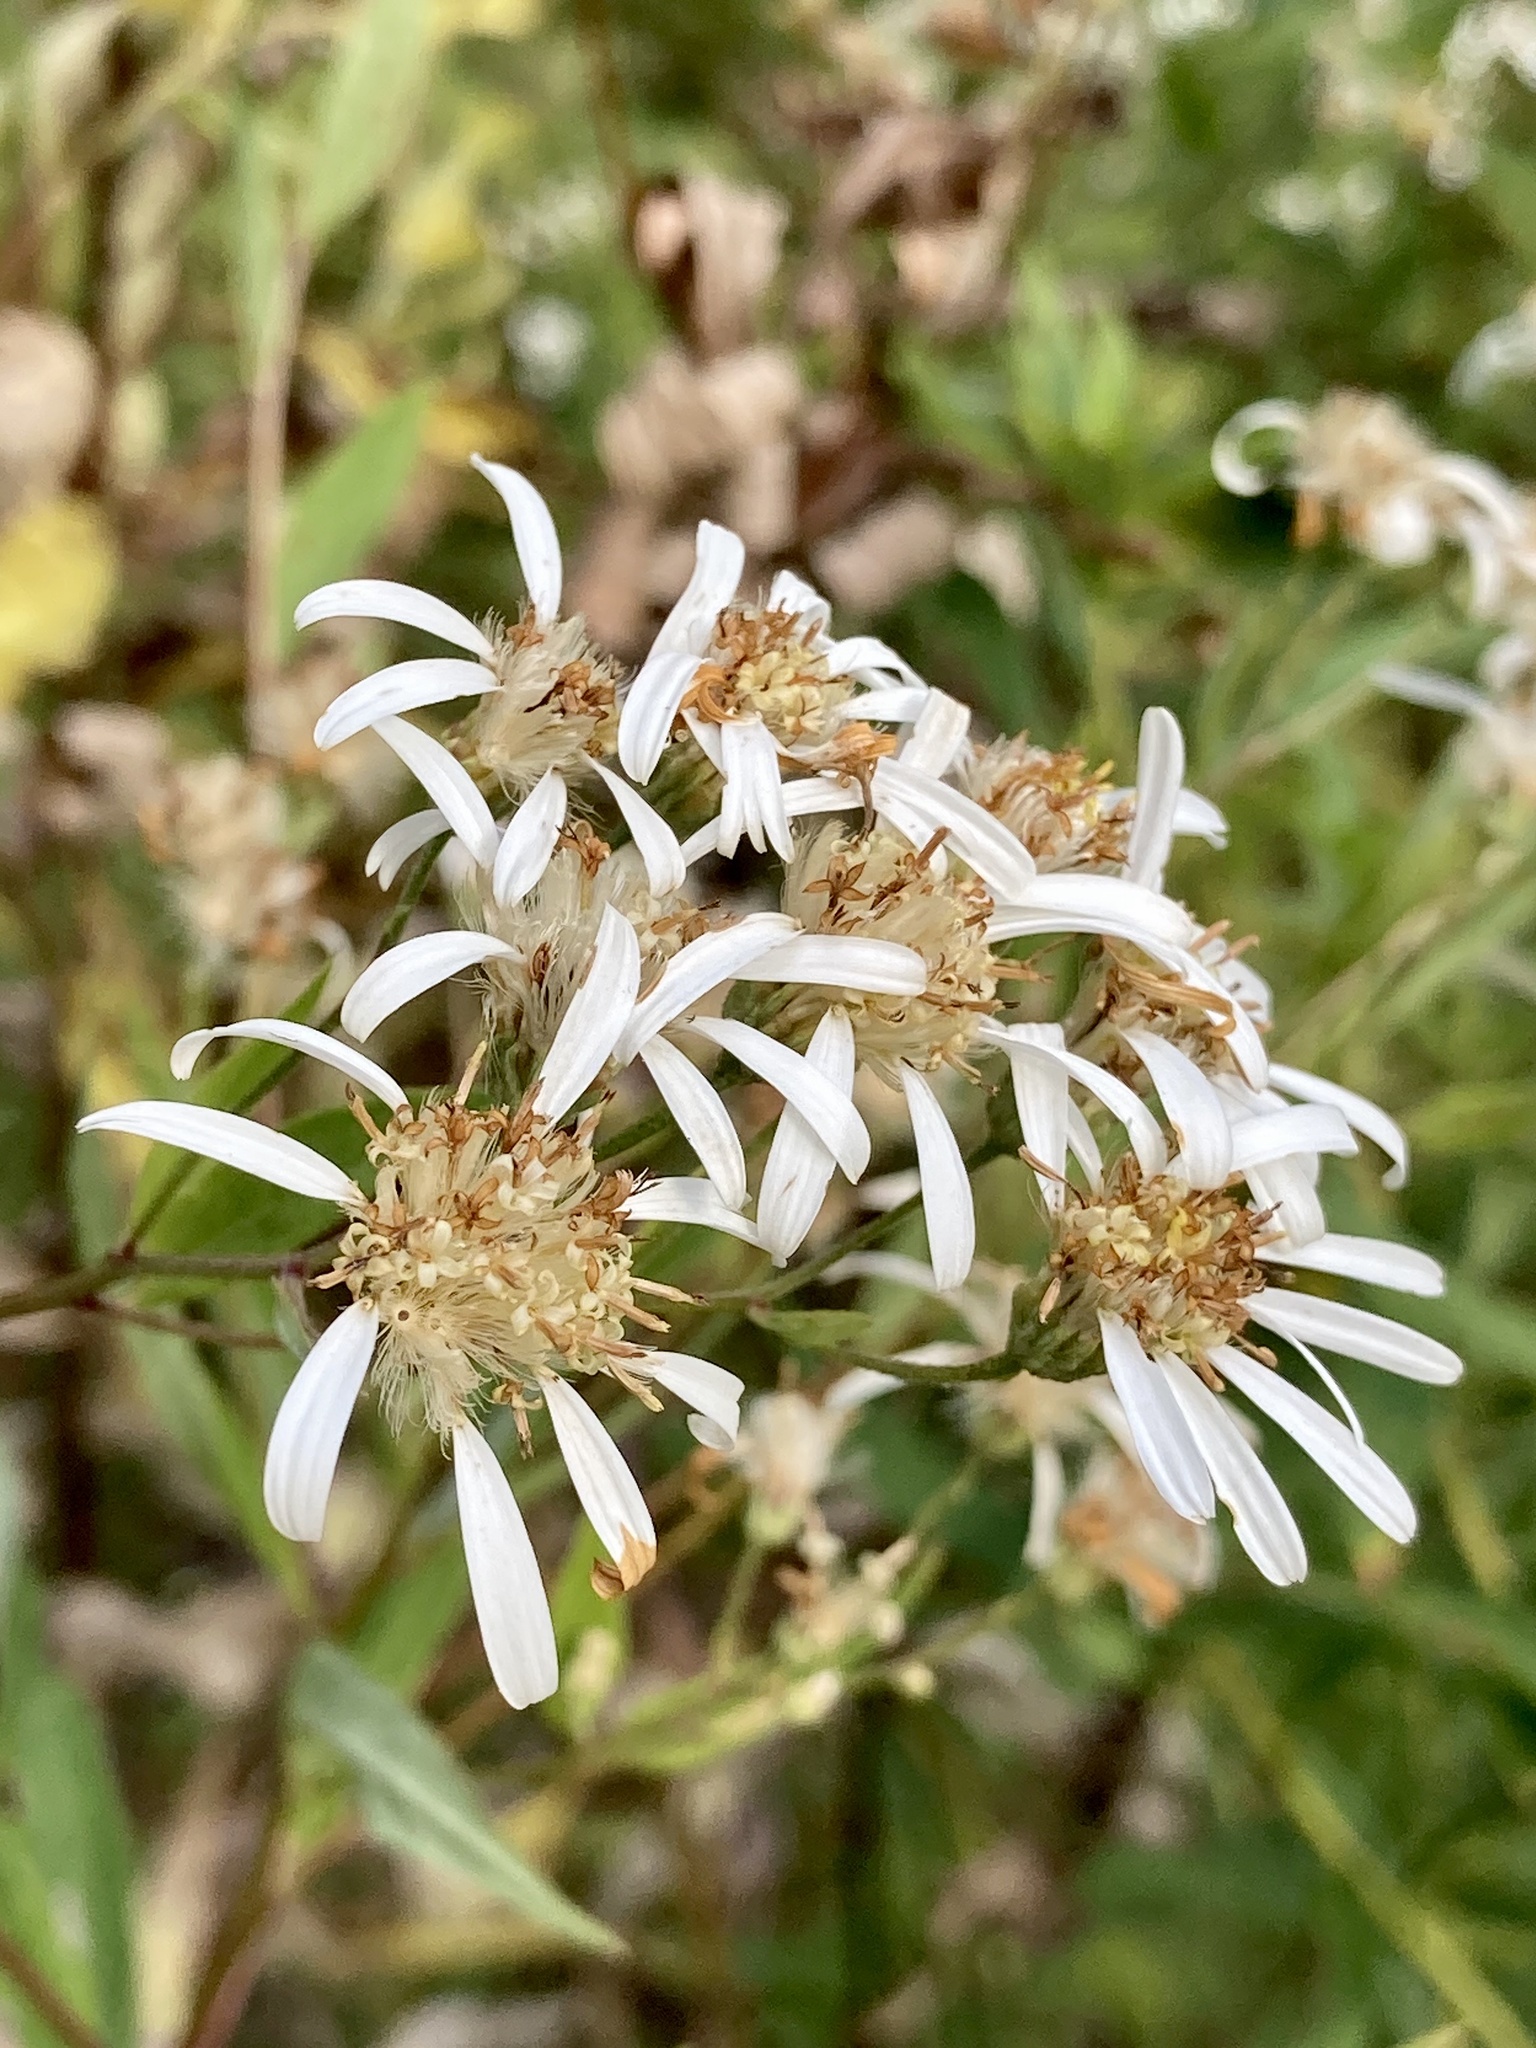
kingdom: Plantae
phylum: Tracheophyta
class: Magnoliopsida
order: Asterales
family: Asteraceae
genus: Doellingeria
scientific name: Doellingeria umbellata
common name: Flat-top white aster
